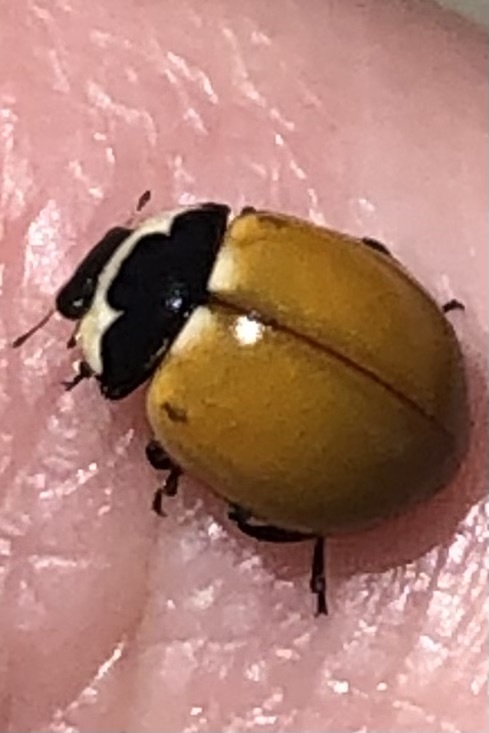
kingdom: Animalia
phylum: Arthropoda
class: Insecta
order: Coleoptera
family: Coccinellidae
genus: Coccinella
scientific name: Coccinella novemnotata
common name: Nine-spotted lady beetle
